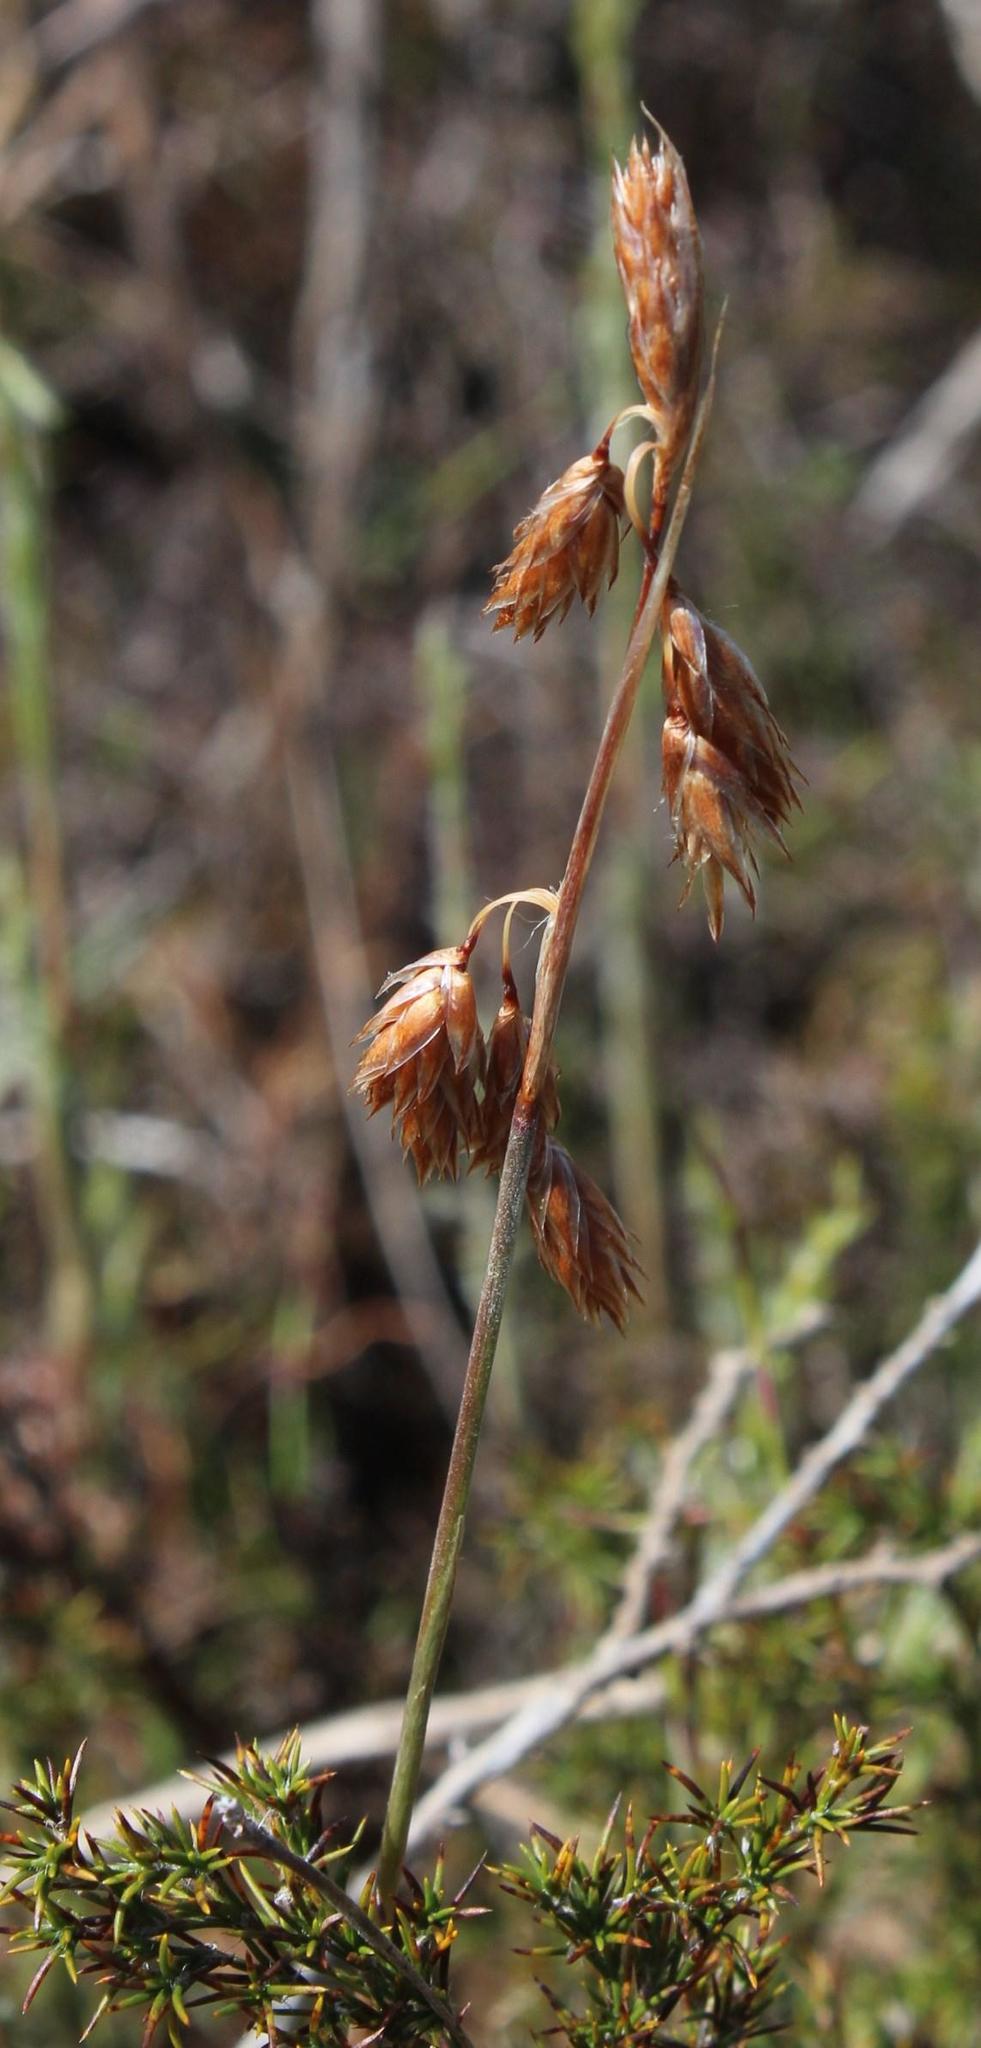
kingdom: Plantae
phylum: Tracheophyta
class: Liliopsida
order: Poales
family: Restionaceae
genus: Thamnochortus
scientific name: Thamnochortus fruticosus
